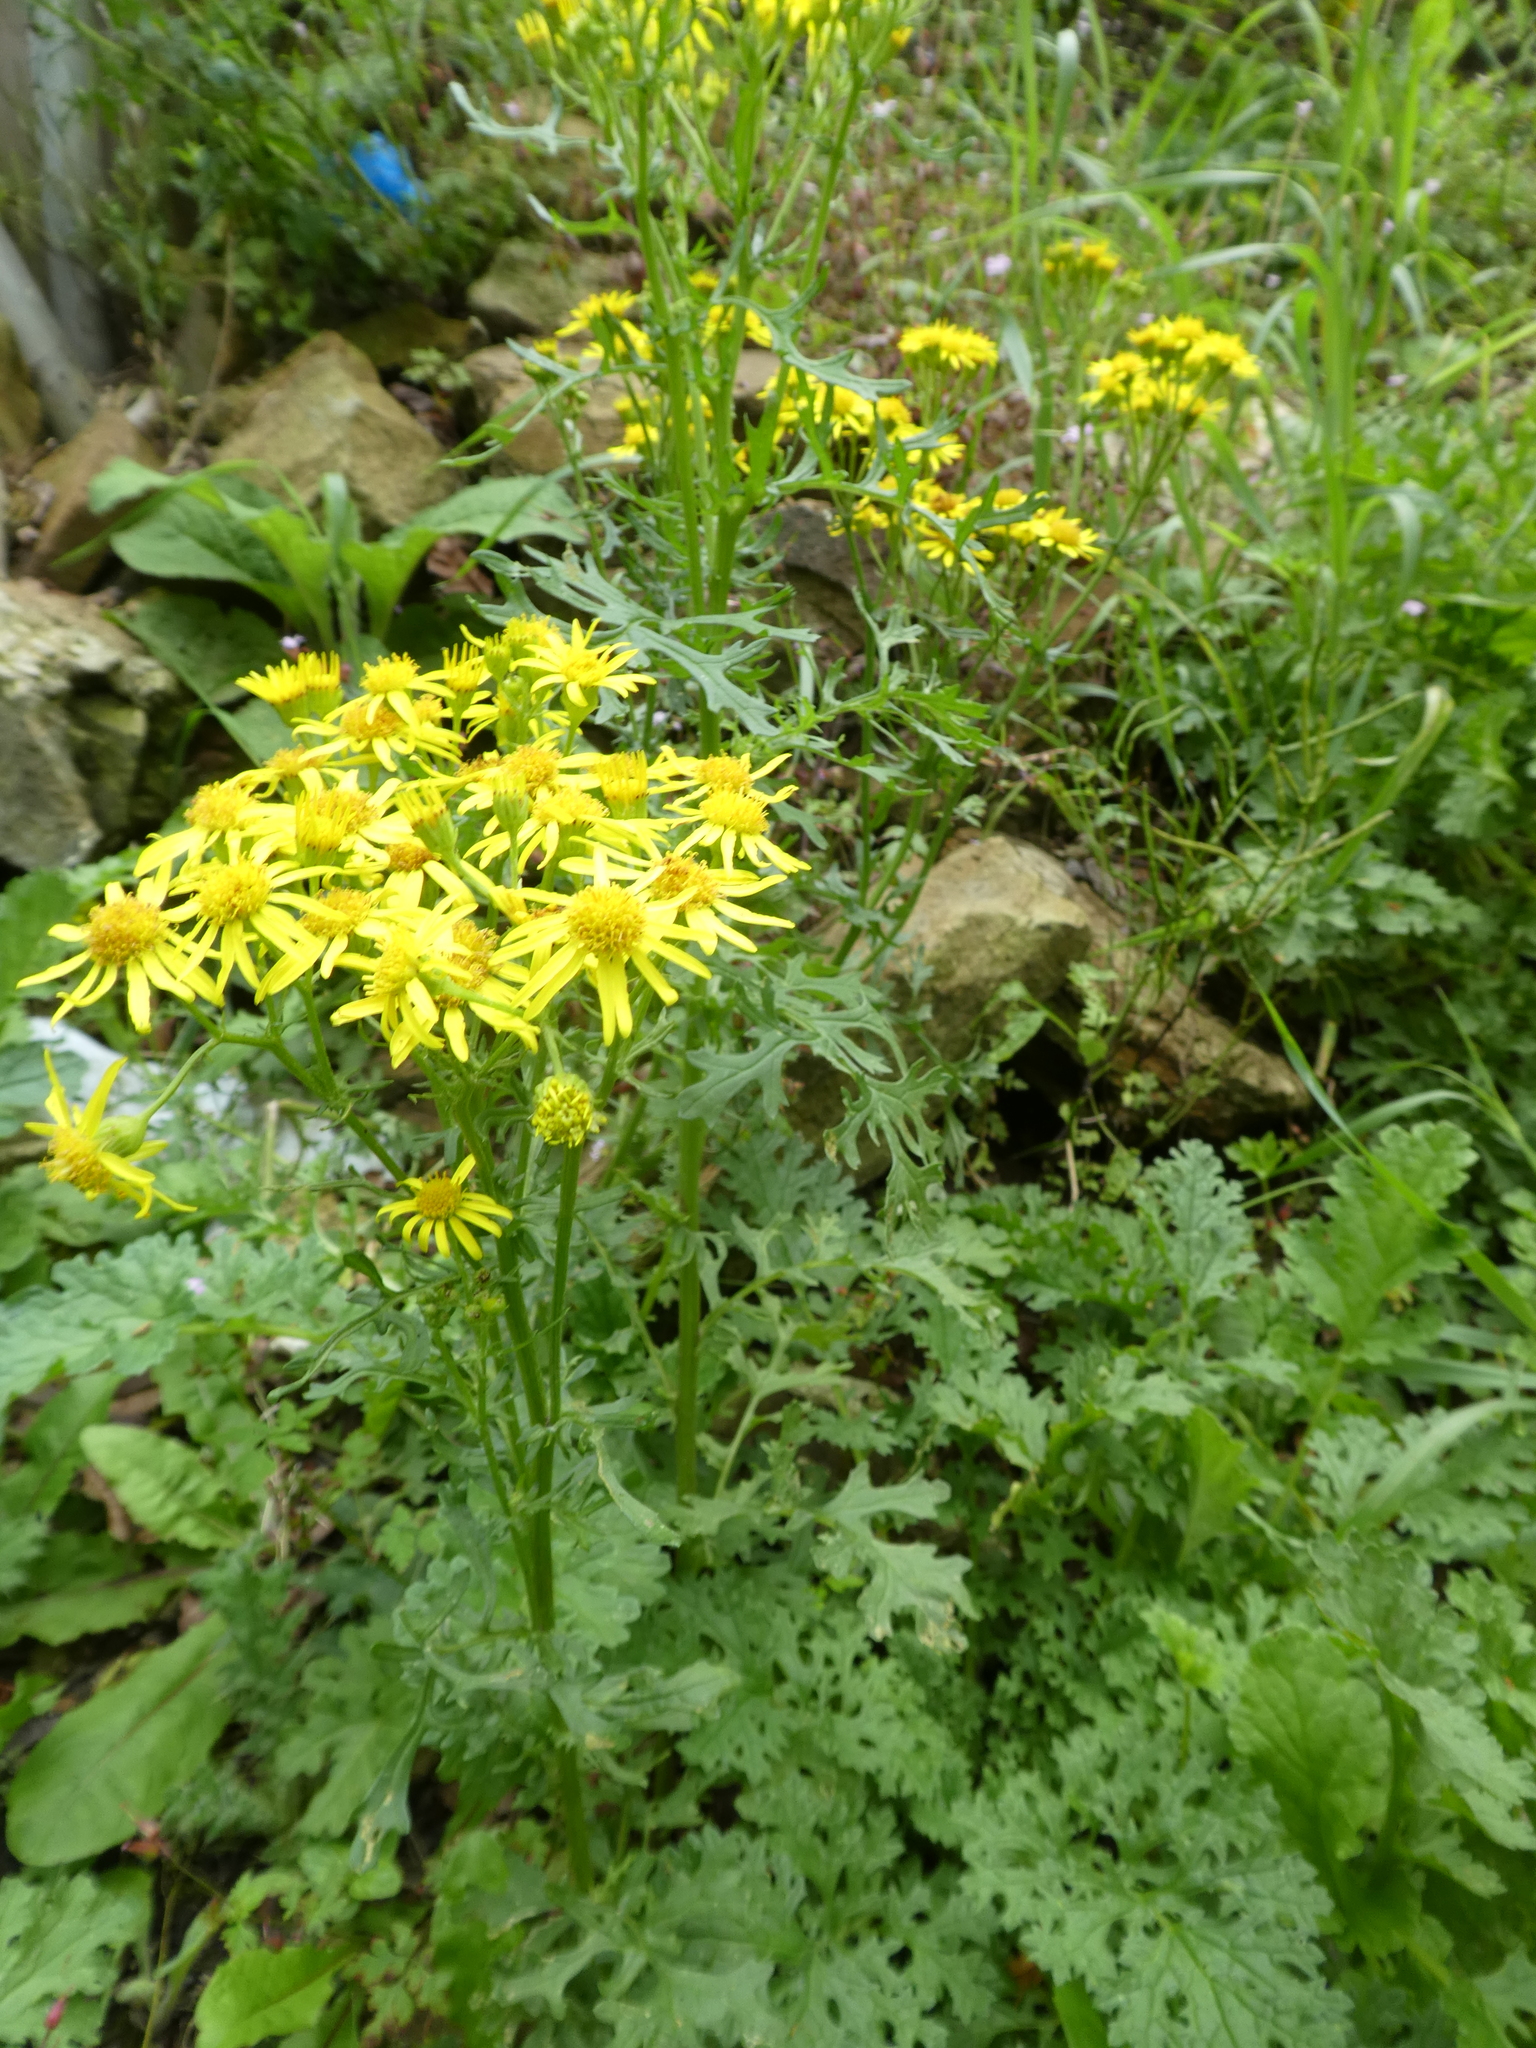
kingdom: Plantae
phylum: Tracheophyta
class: Magnoliopsida
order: Asterales
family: Asteraceae
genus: Jacobaea
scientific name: Jacobaea vulgaris
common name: Stinking willie
